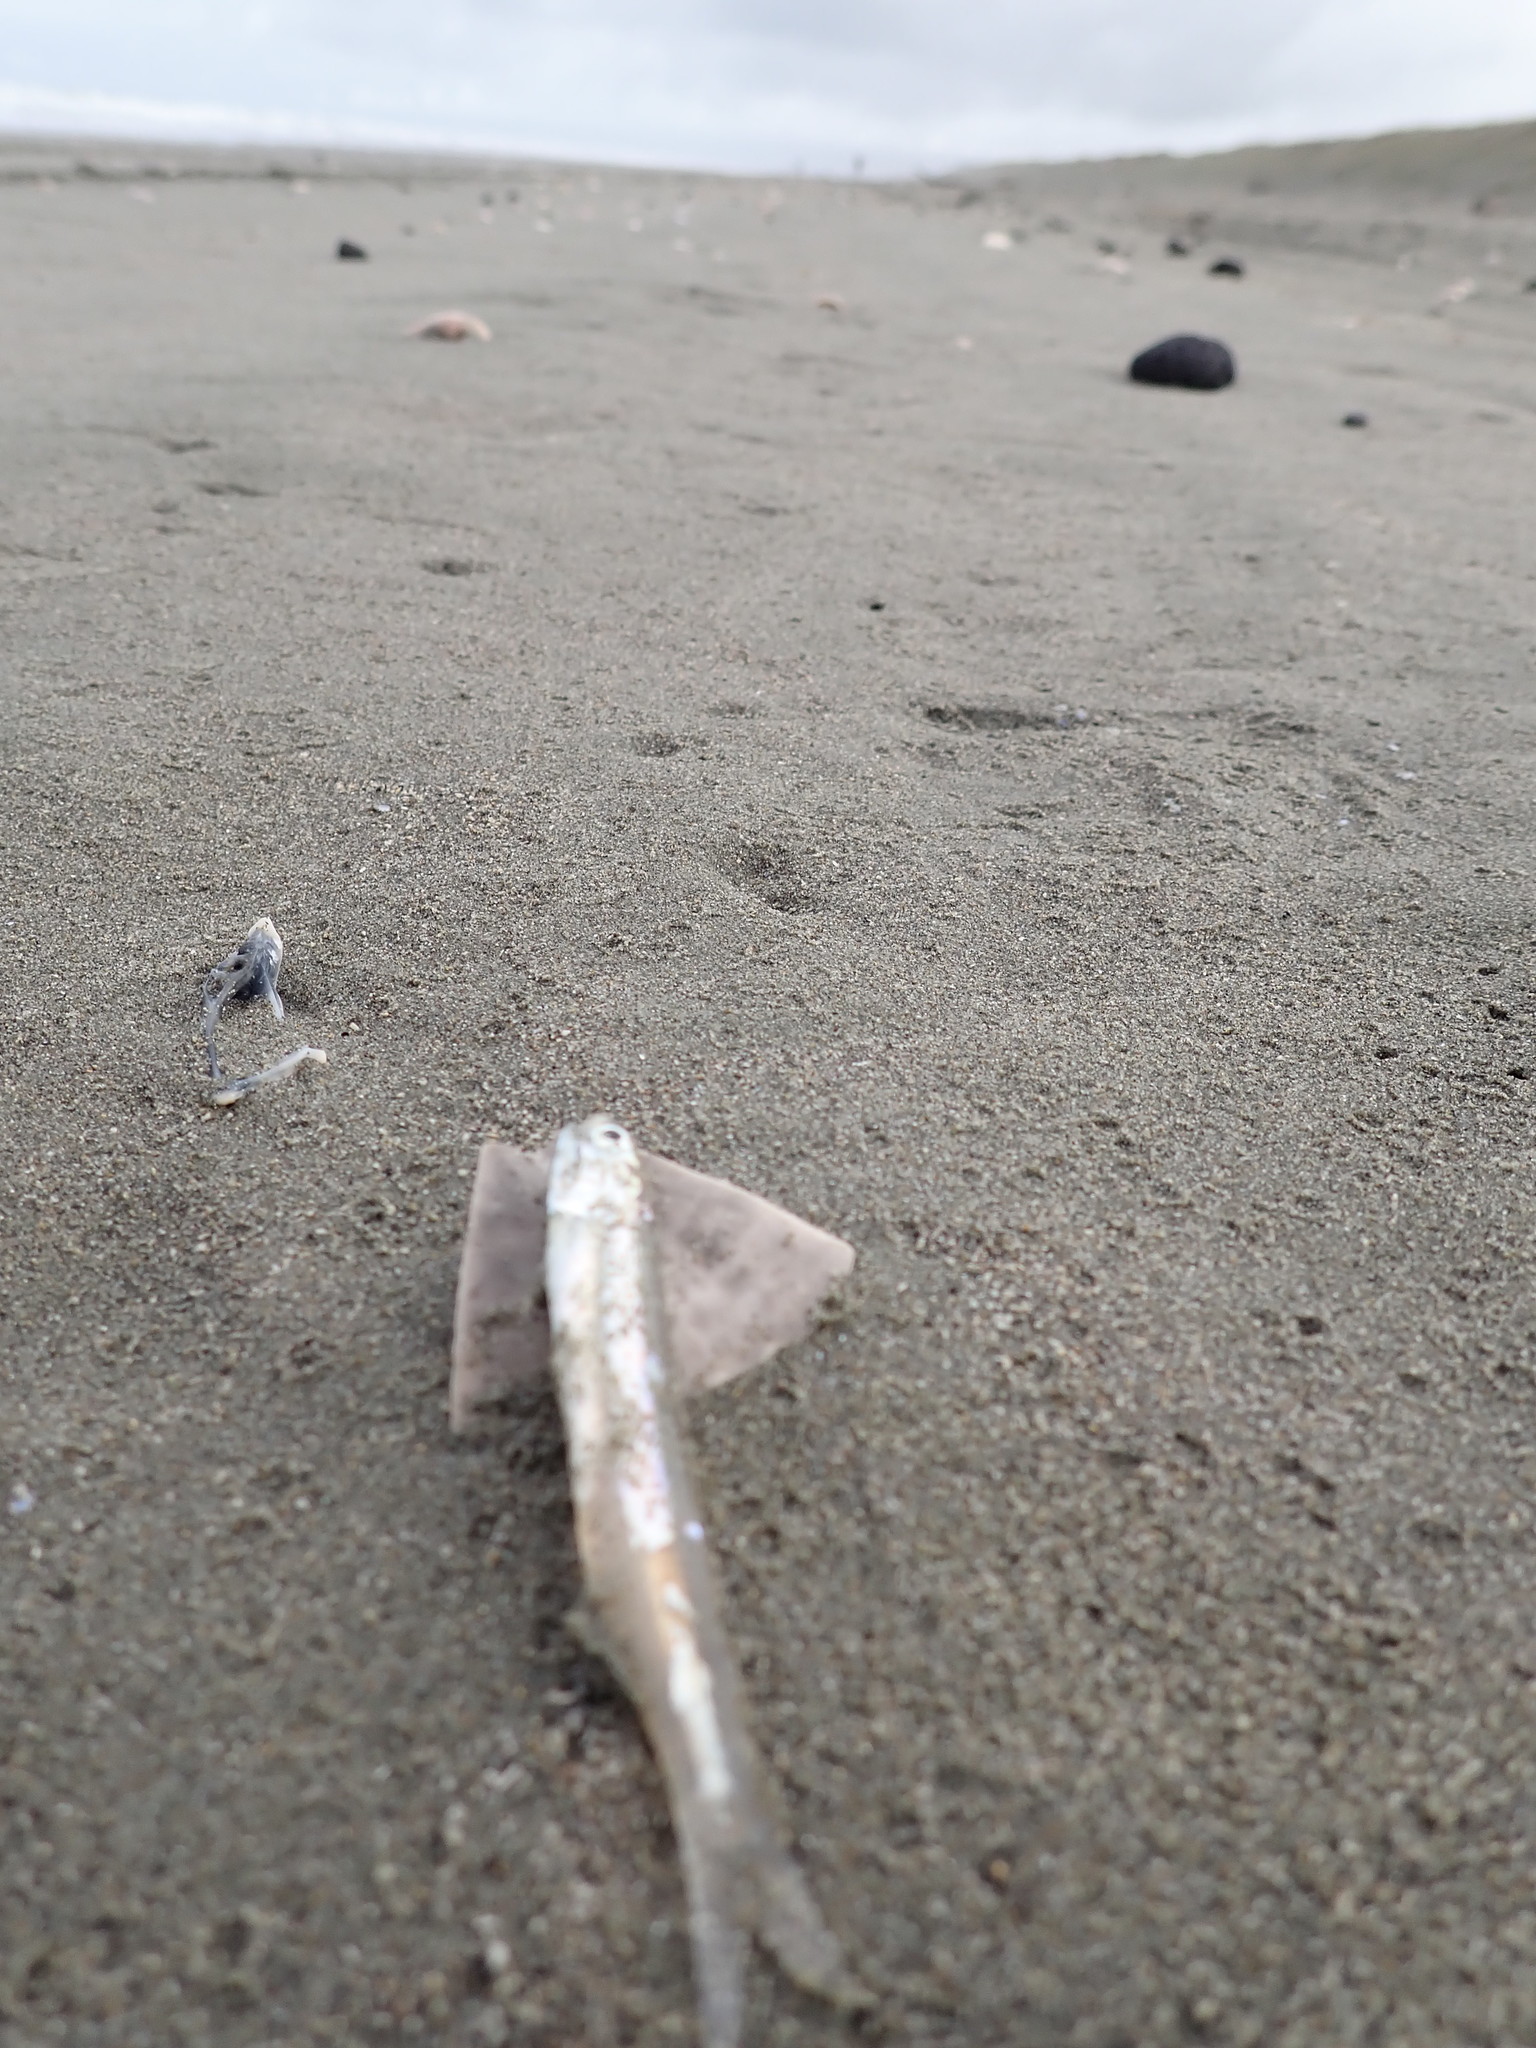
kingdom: Animalia
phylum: Chordata
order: Clupeiformes
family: Engraulidae
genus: Engraulis
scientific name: Engraulis australis
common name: Australian anchovy
